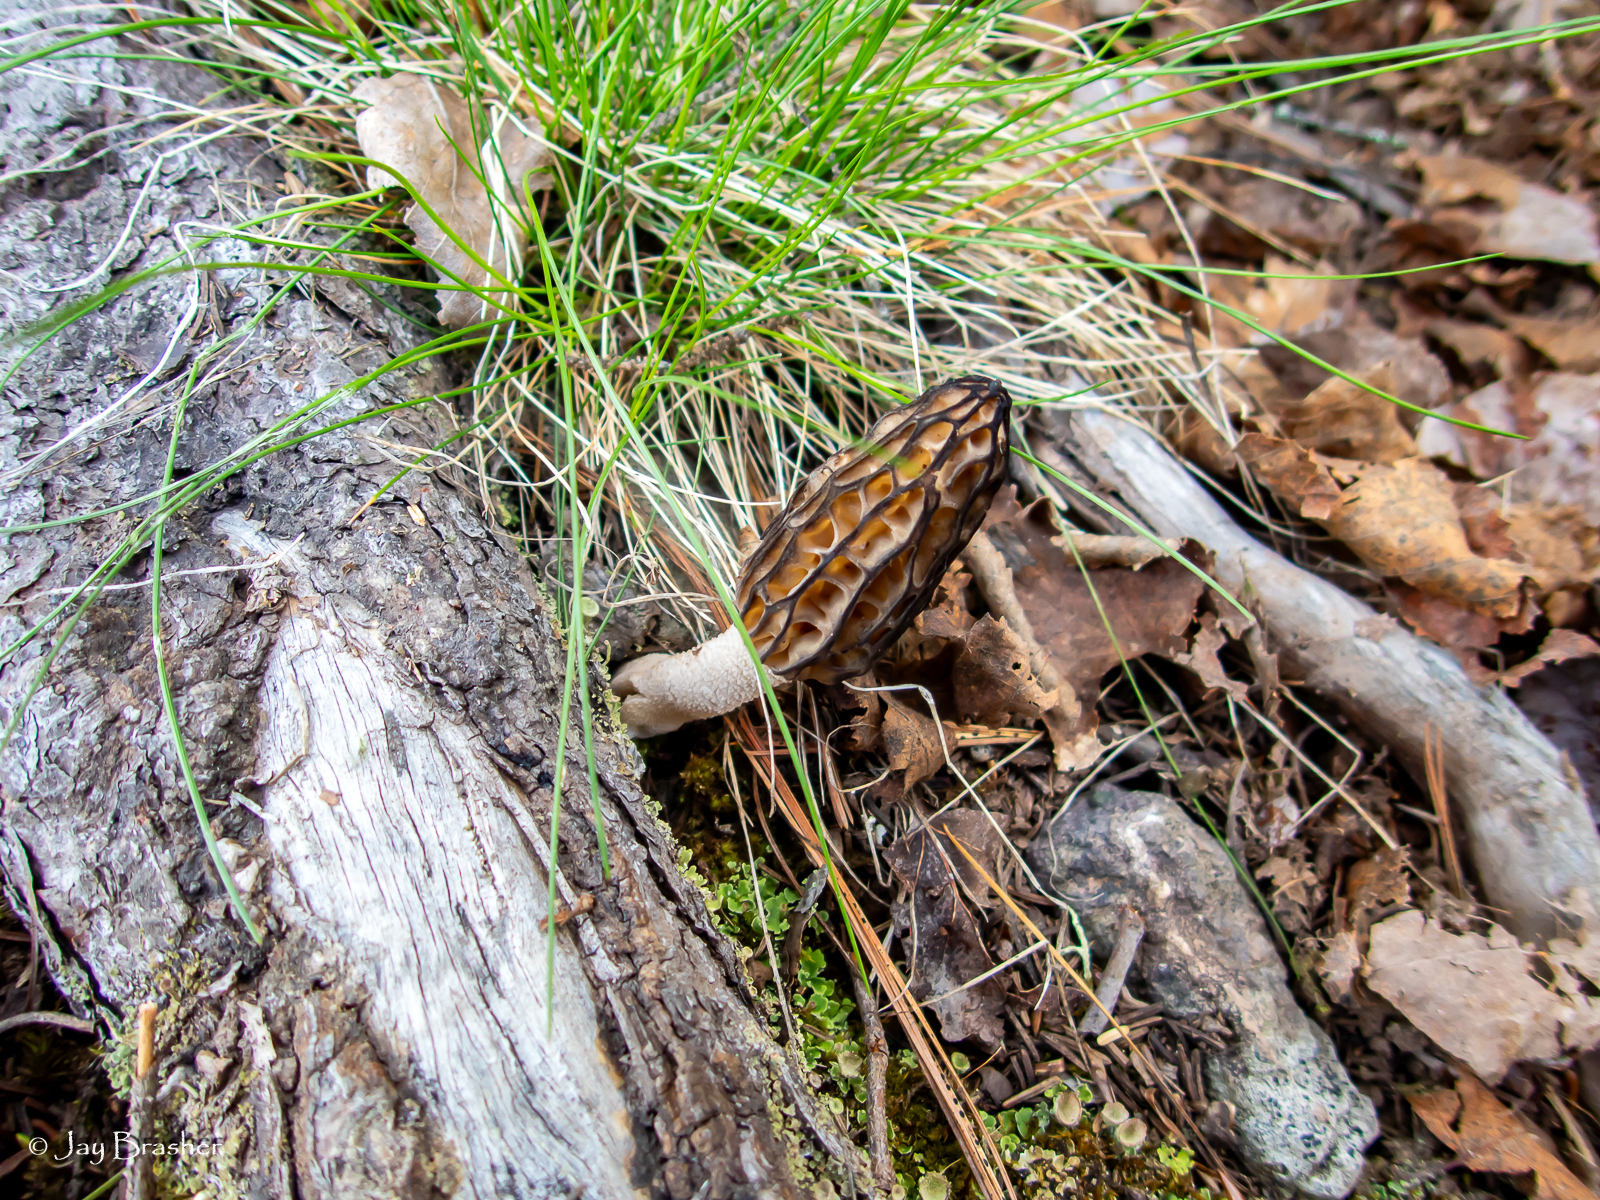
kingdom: Fungi
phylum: Ascomycota
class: Pezizomycetes
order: Pezizales
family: Morchellaceae
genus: Morchella
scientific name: Morchella angusticeps
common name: Black morel
